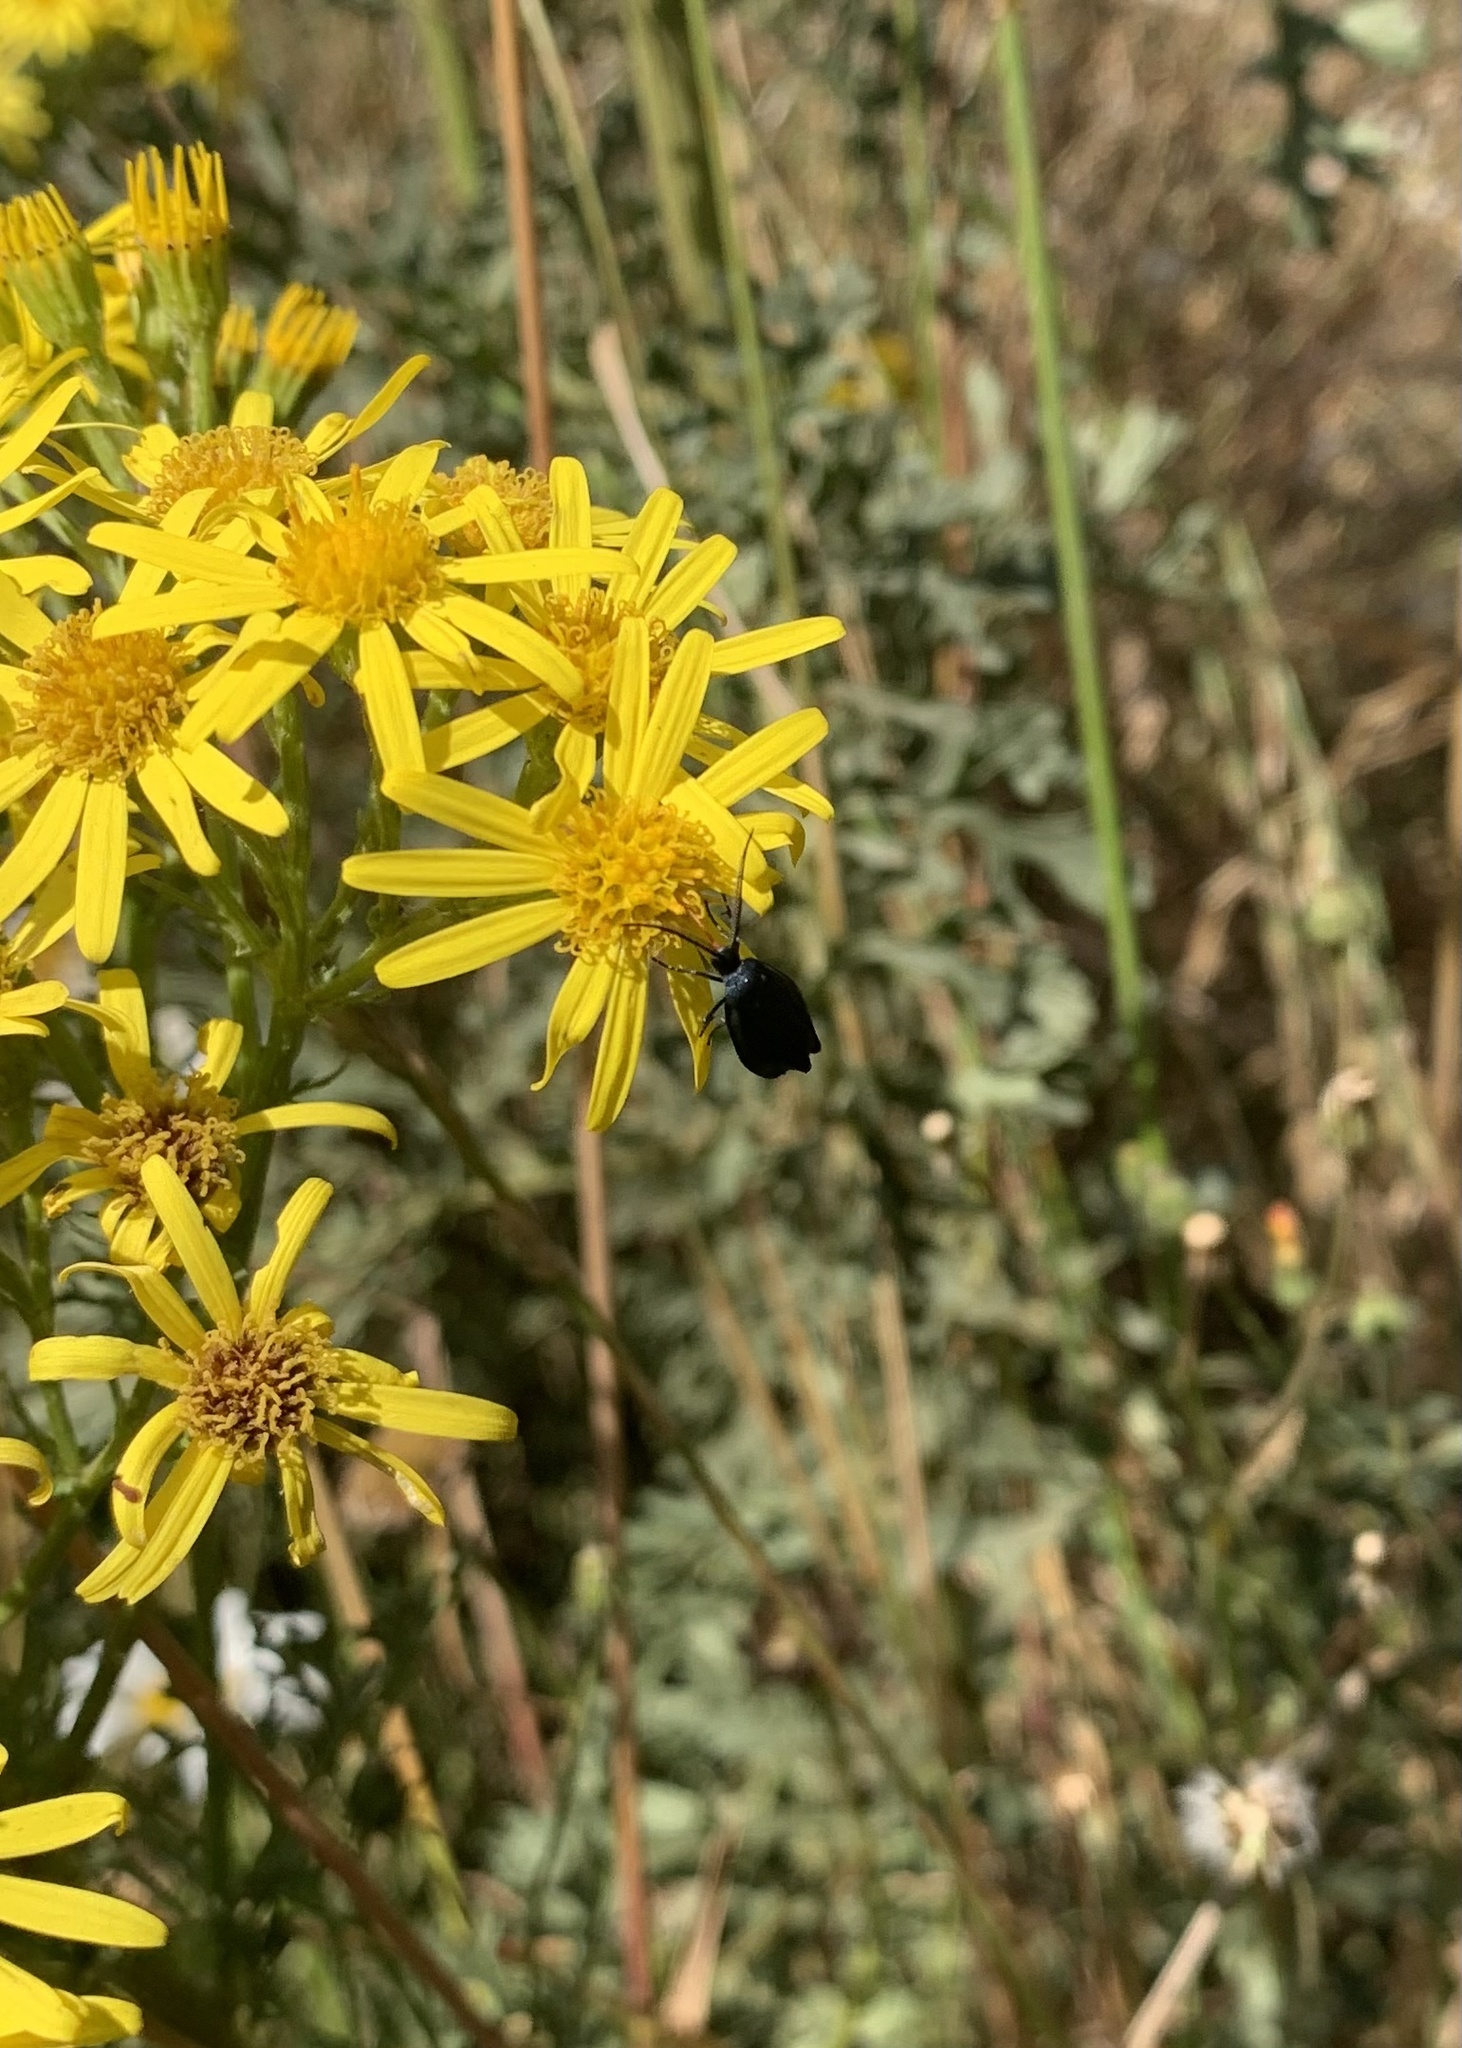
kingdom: Animalia
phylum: Arthropoda
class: Insecta
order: Lepidoptera
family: Zygaenidae
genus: Malamblia
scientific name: Malamblia
